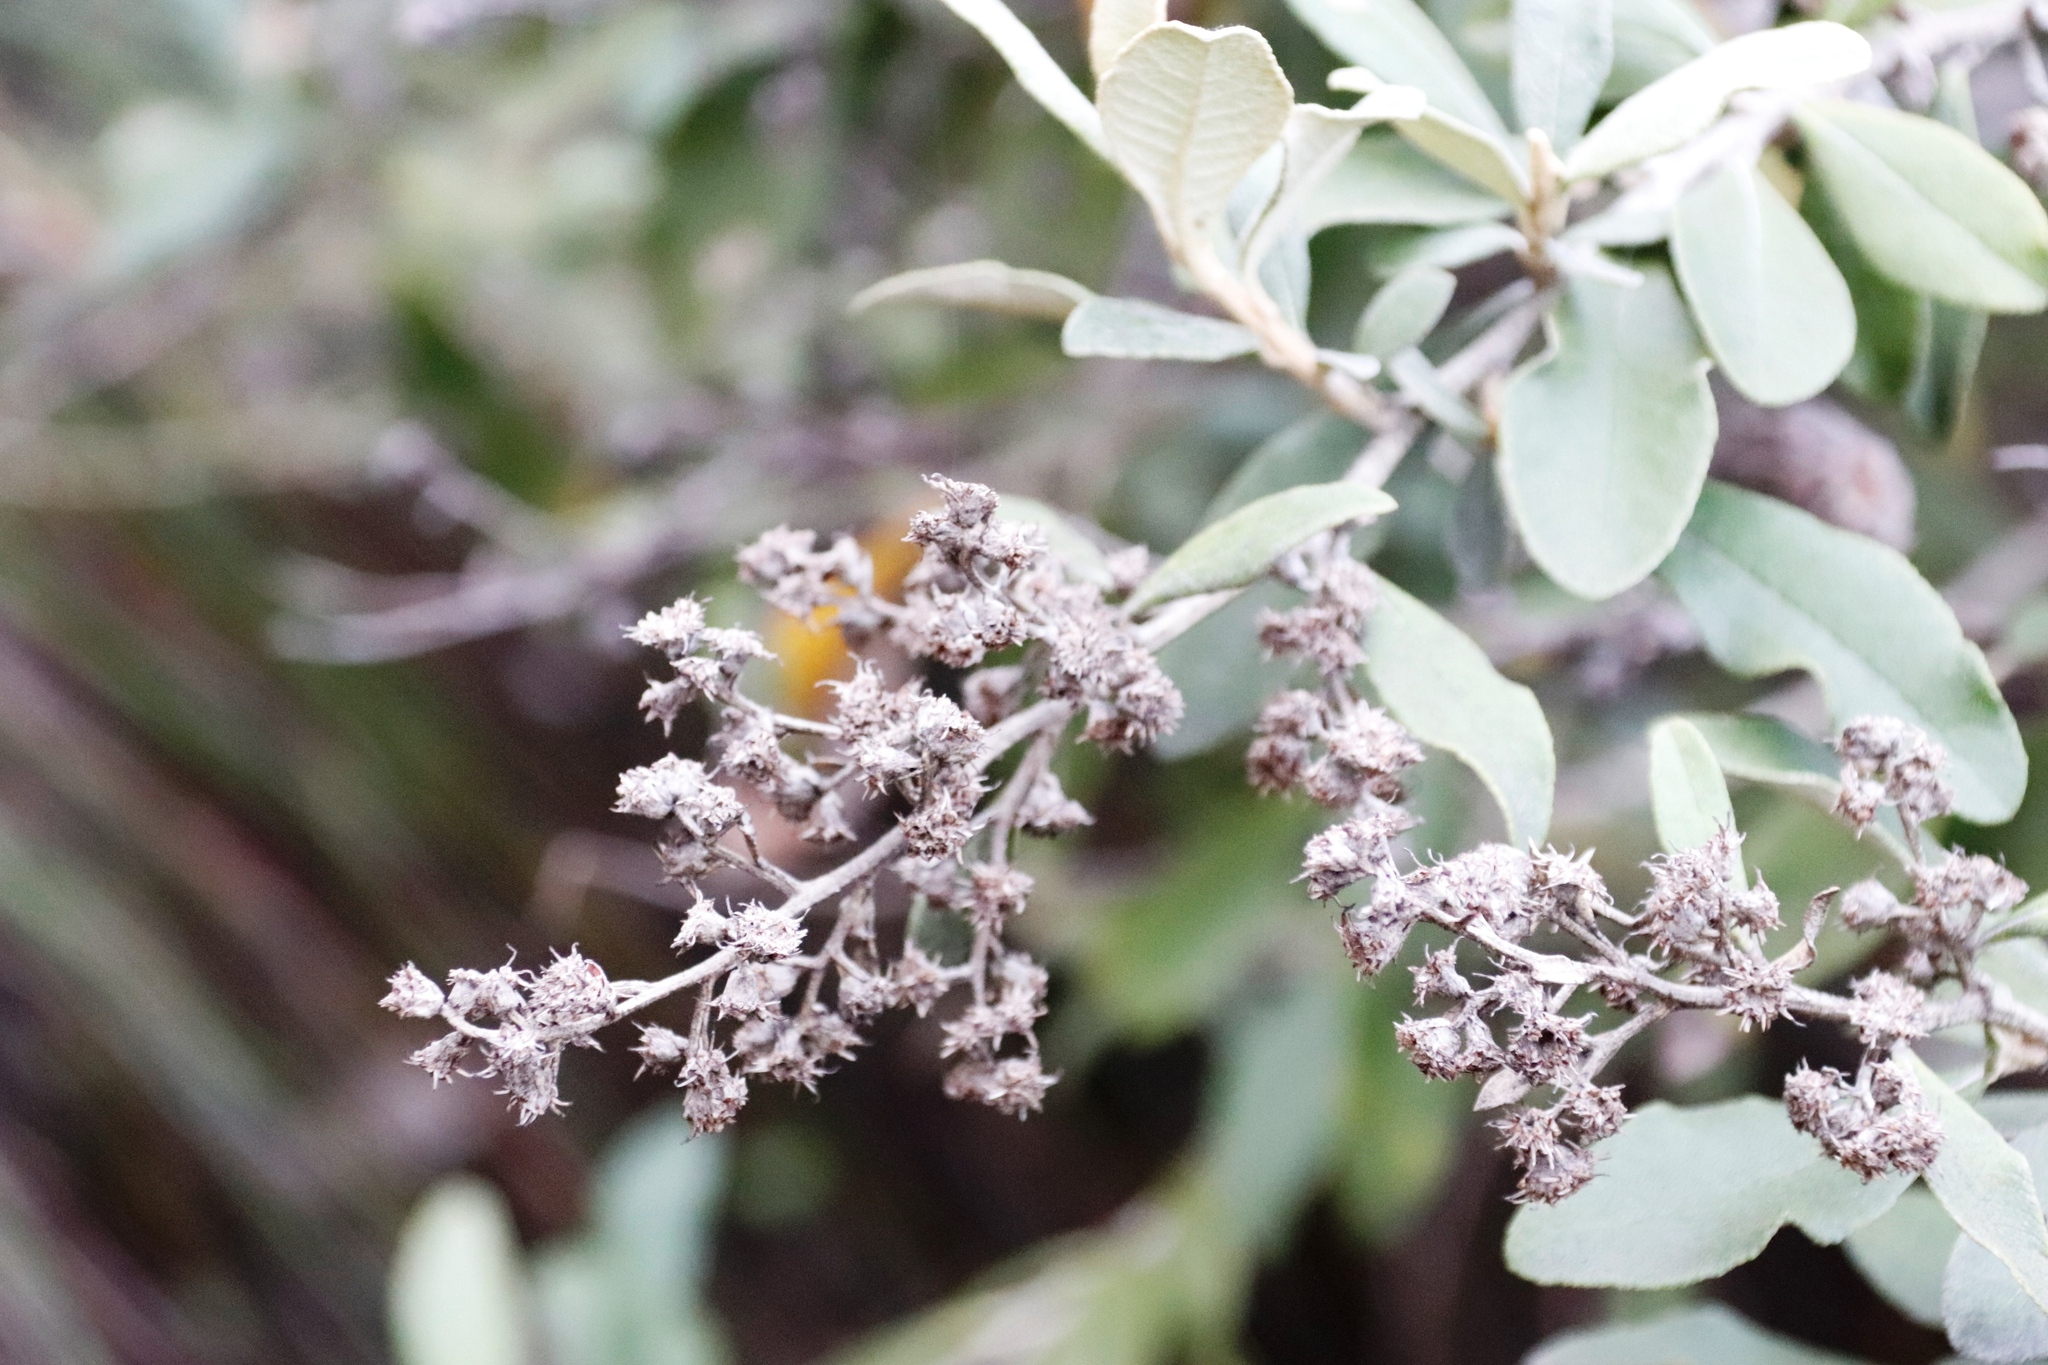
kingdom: Plantae
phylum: Tracheophyta
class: Magnoliopsida
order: Asterales
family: Asteraceae
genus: Tarchonanthus
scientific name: Tarchonanthus littoralis
